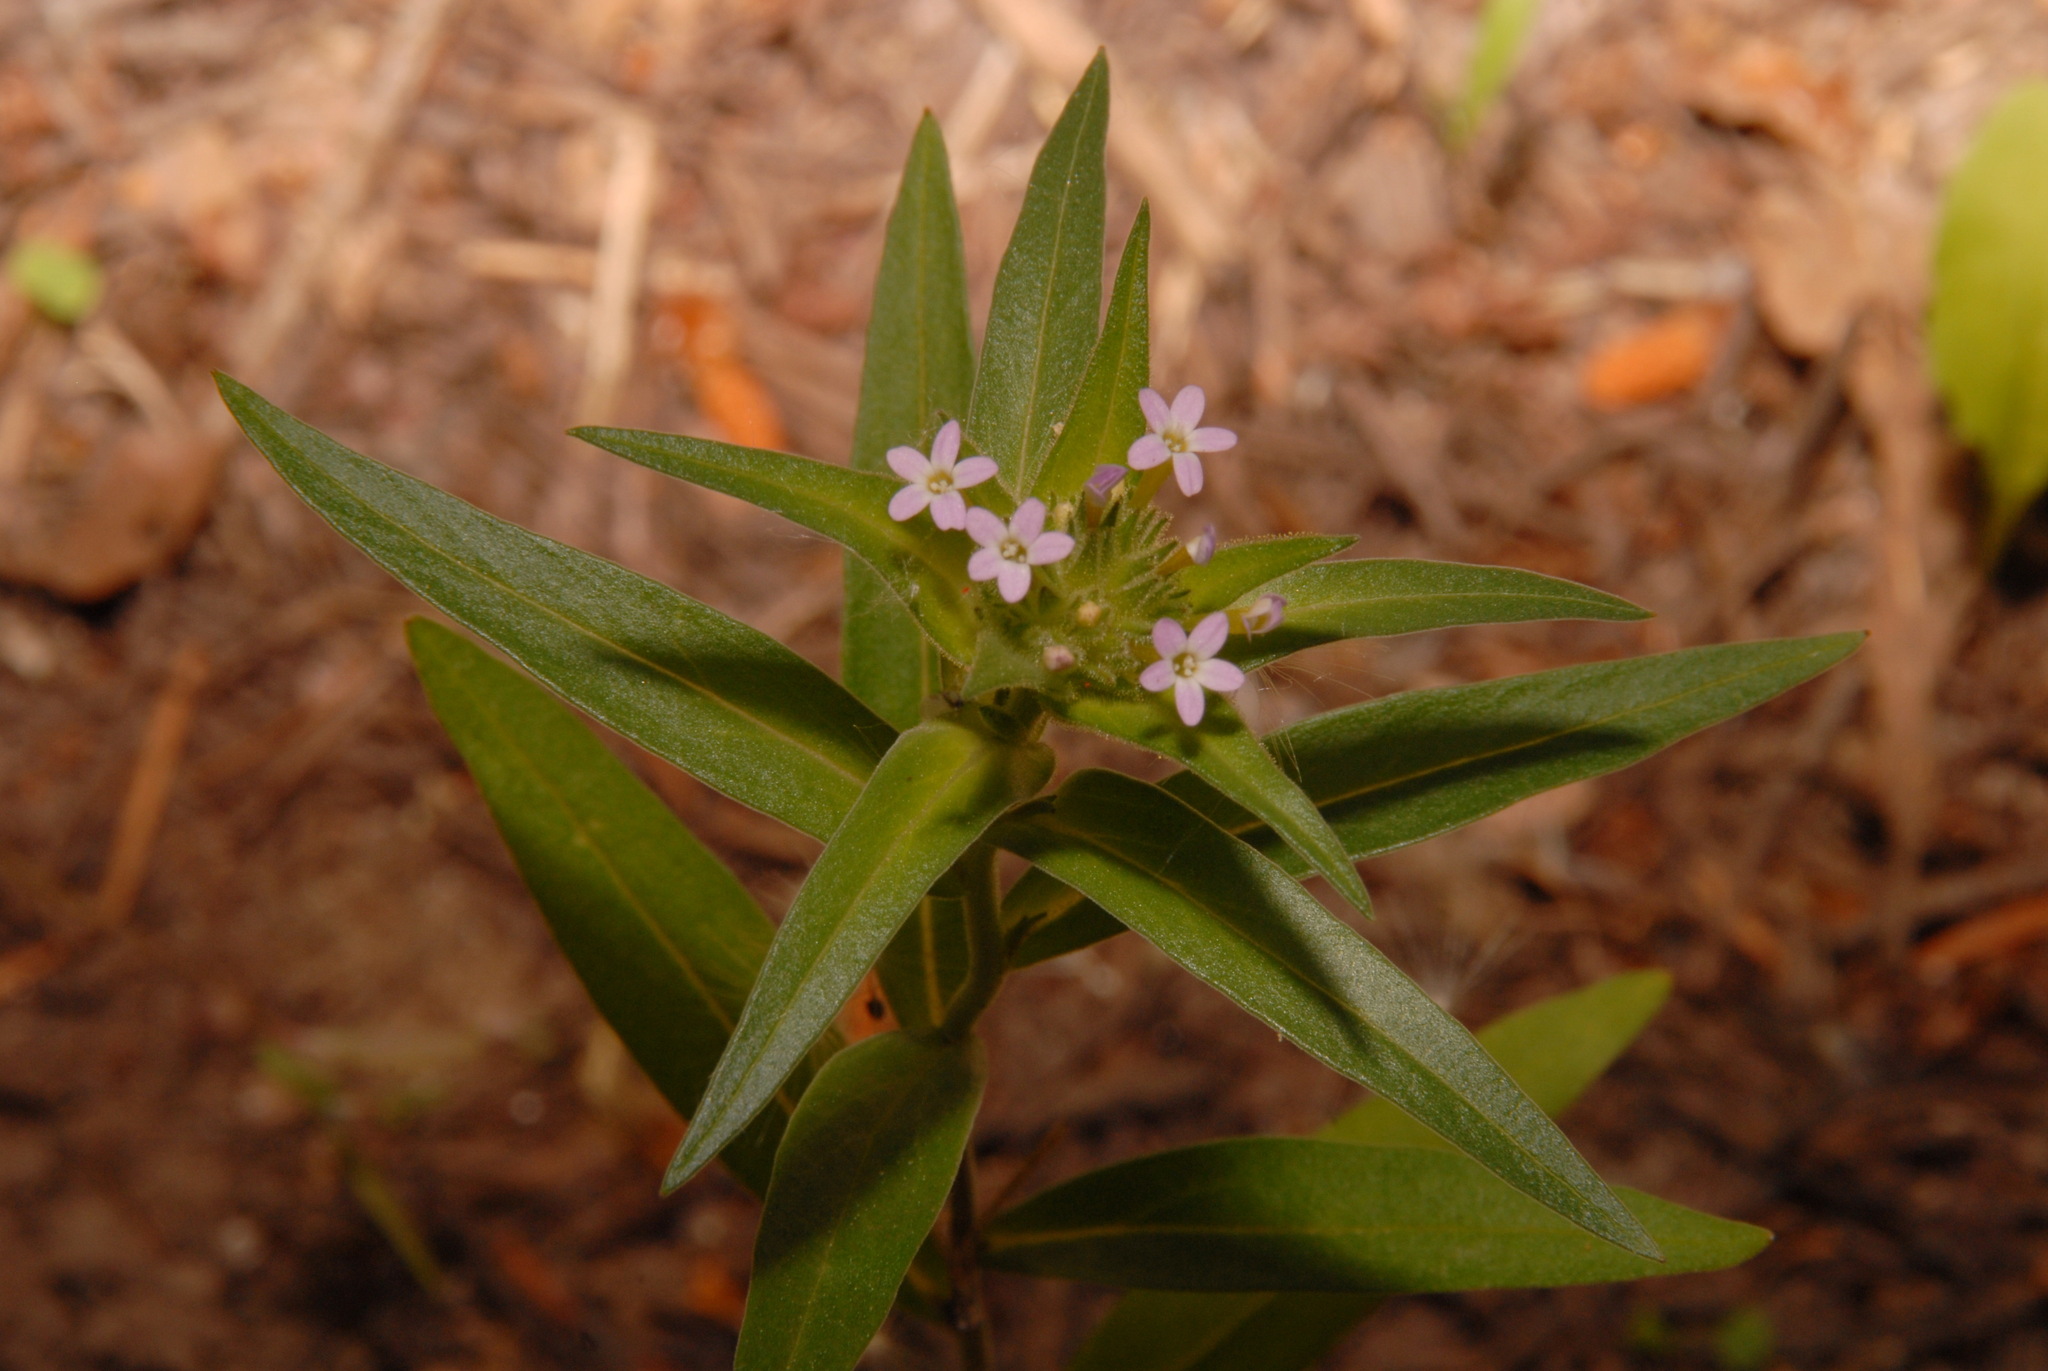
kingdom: Plantae
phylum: Tracheophyta
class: Magnoliopsida
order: Ericales
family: Polemoniaceae
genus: Collomia
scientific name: Collomia linearis
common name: Tiny trumpet
